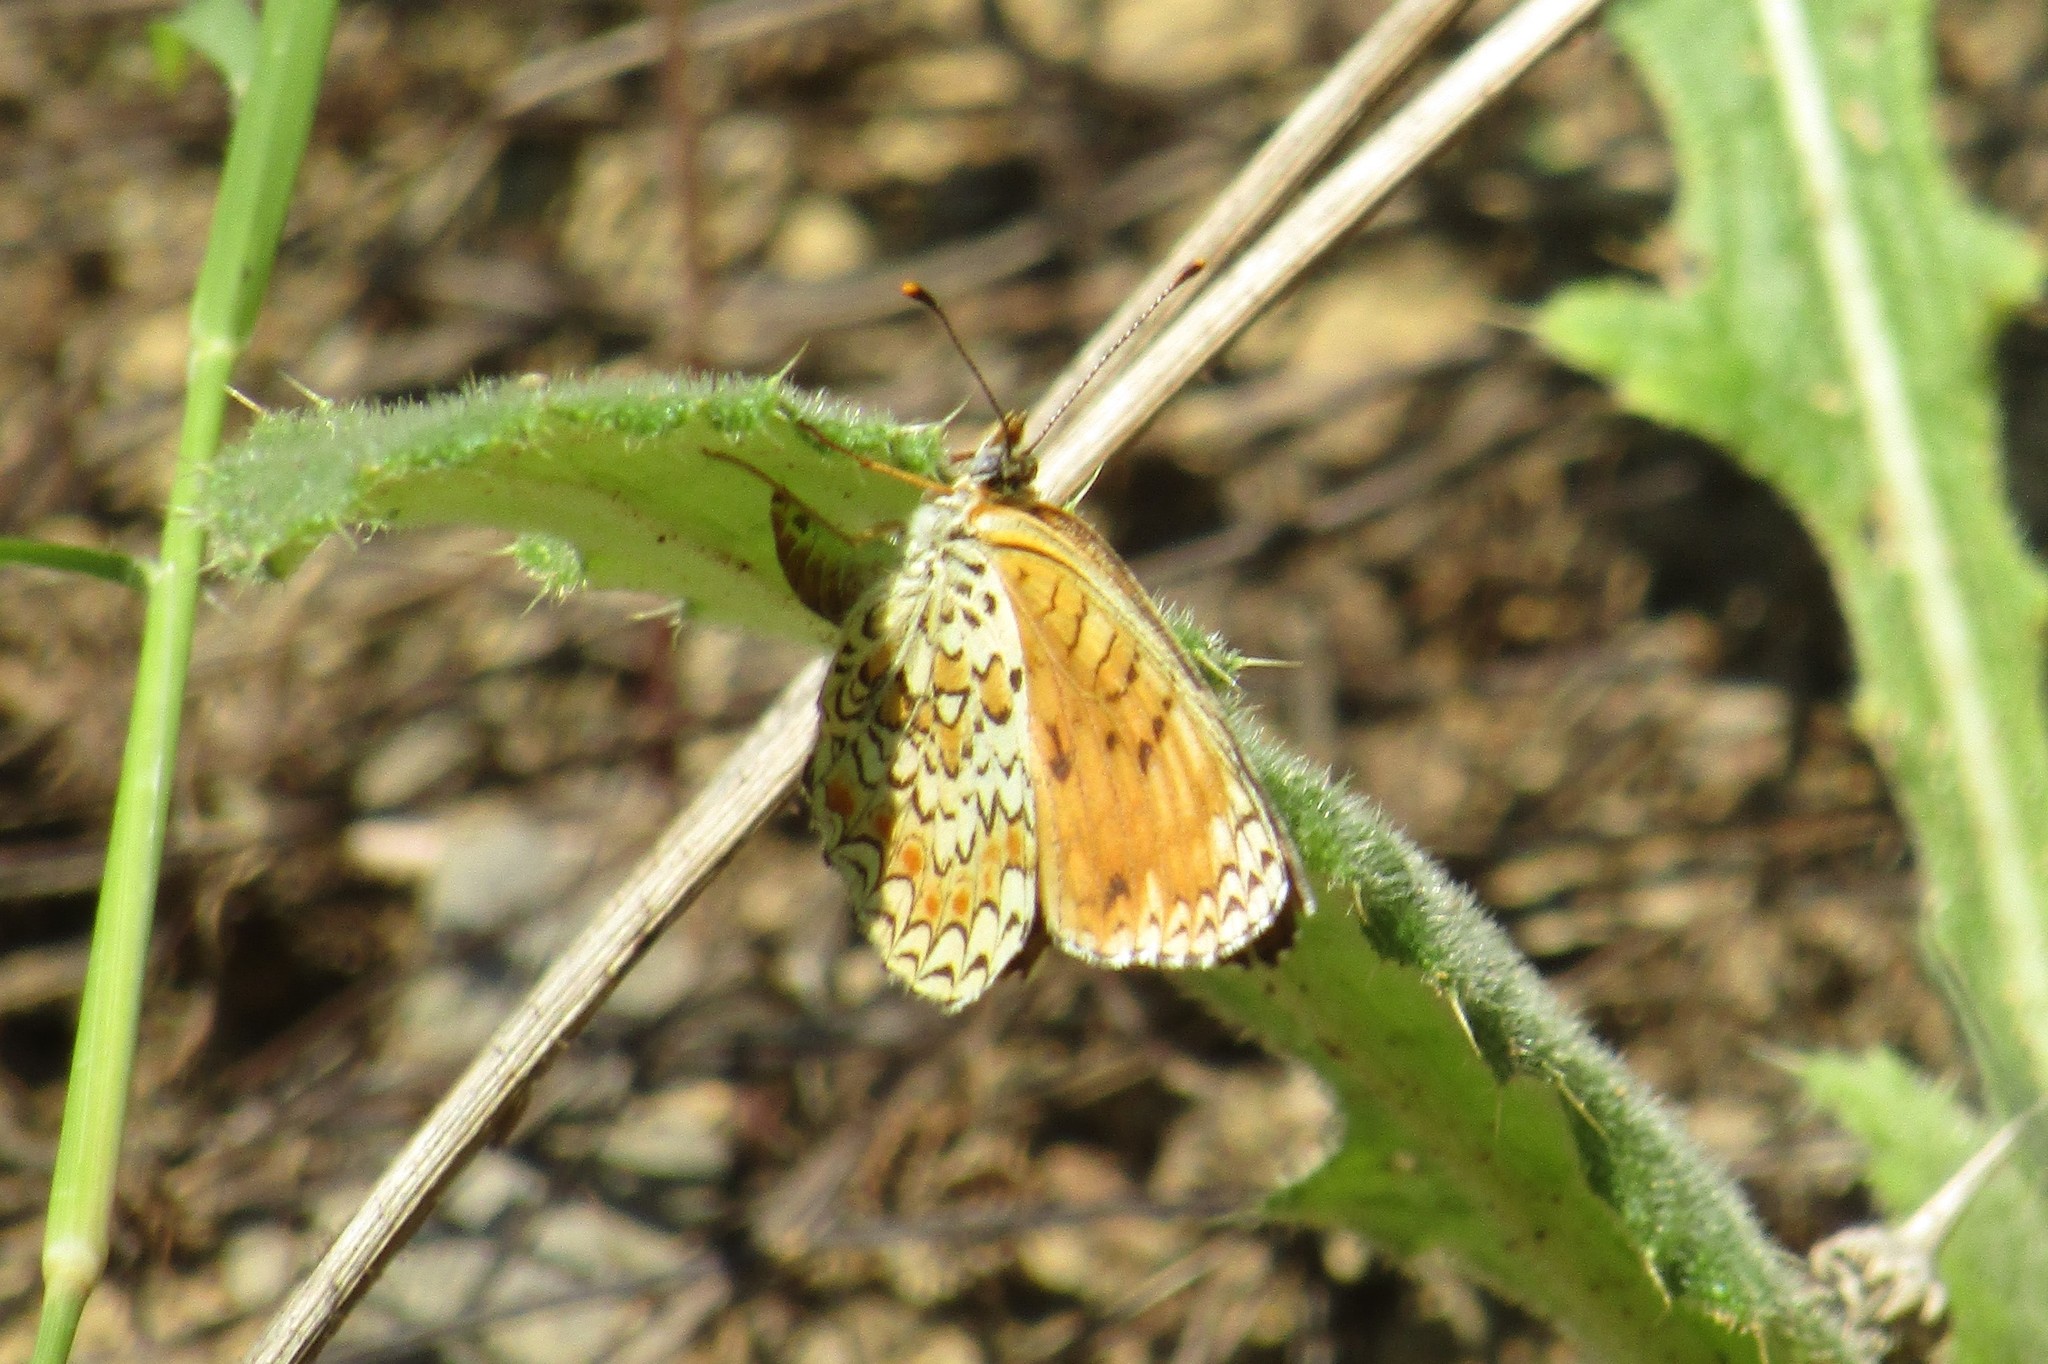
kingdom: Animalia
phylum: Arthropoda
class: Insecta
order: Lepidoptera
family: Nymphalidae
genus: Melitaea
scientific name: Melitaea phoebe
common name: Knapweed fritillary
